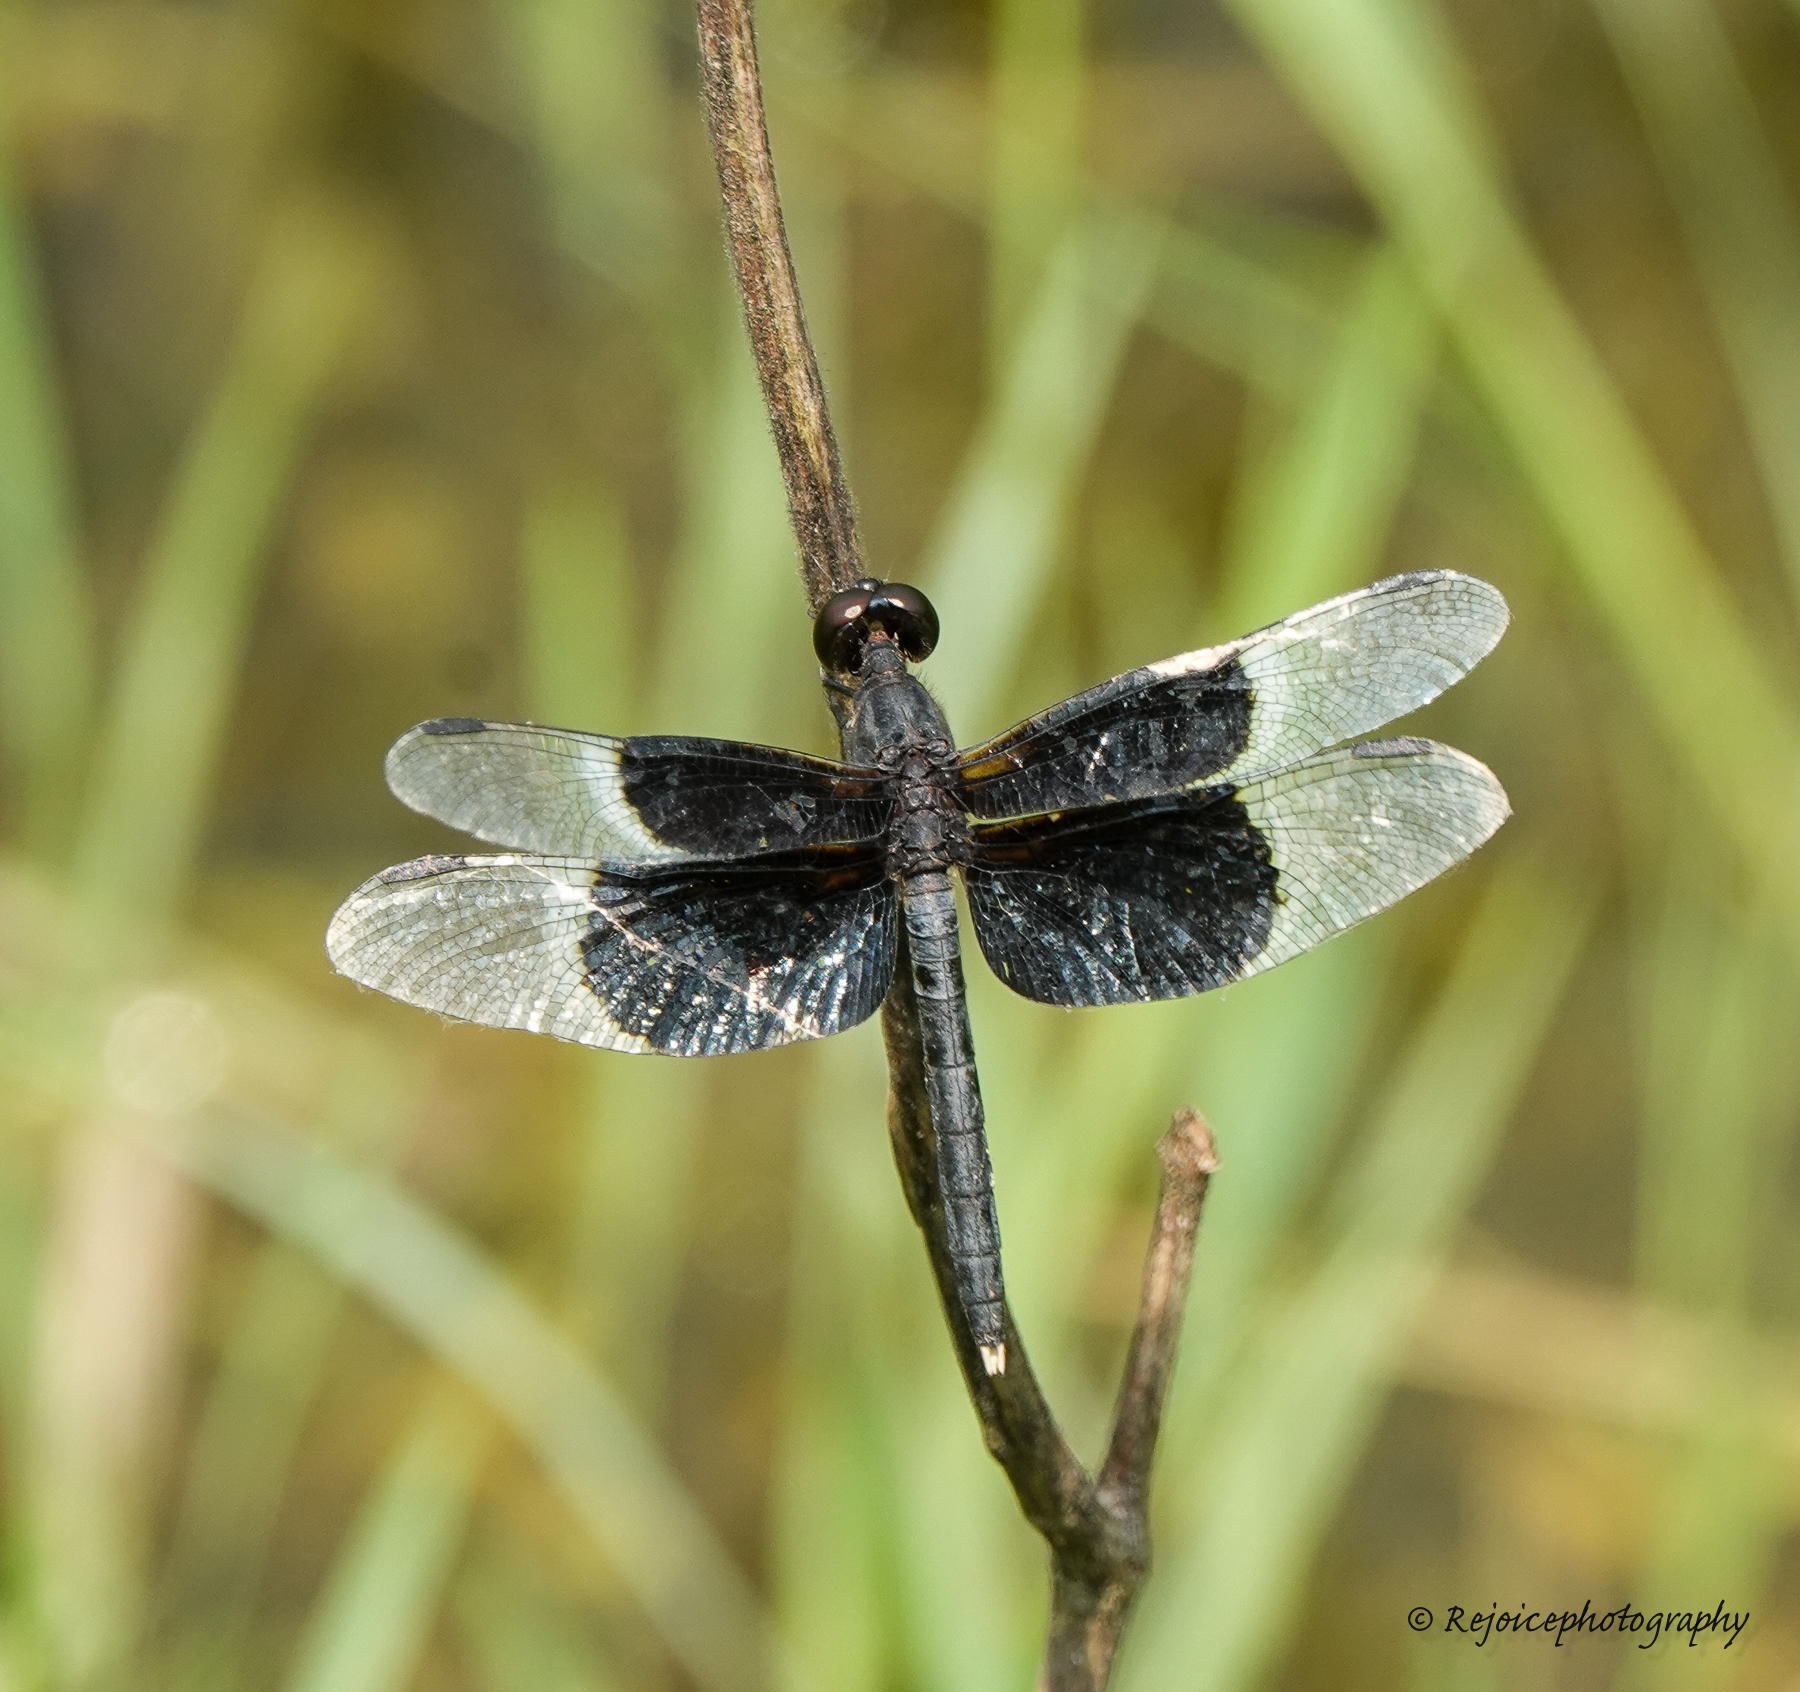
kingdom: Animalia
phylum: Arthropoda
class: Insecta
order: Odonata
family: Libellulidae
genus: Neurothemis
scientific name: Neurothemis tullia
